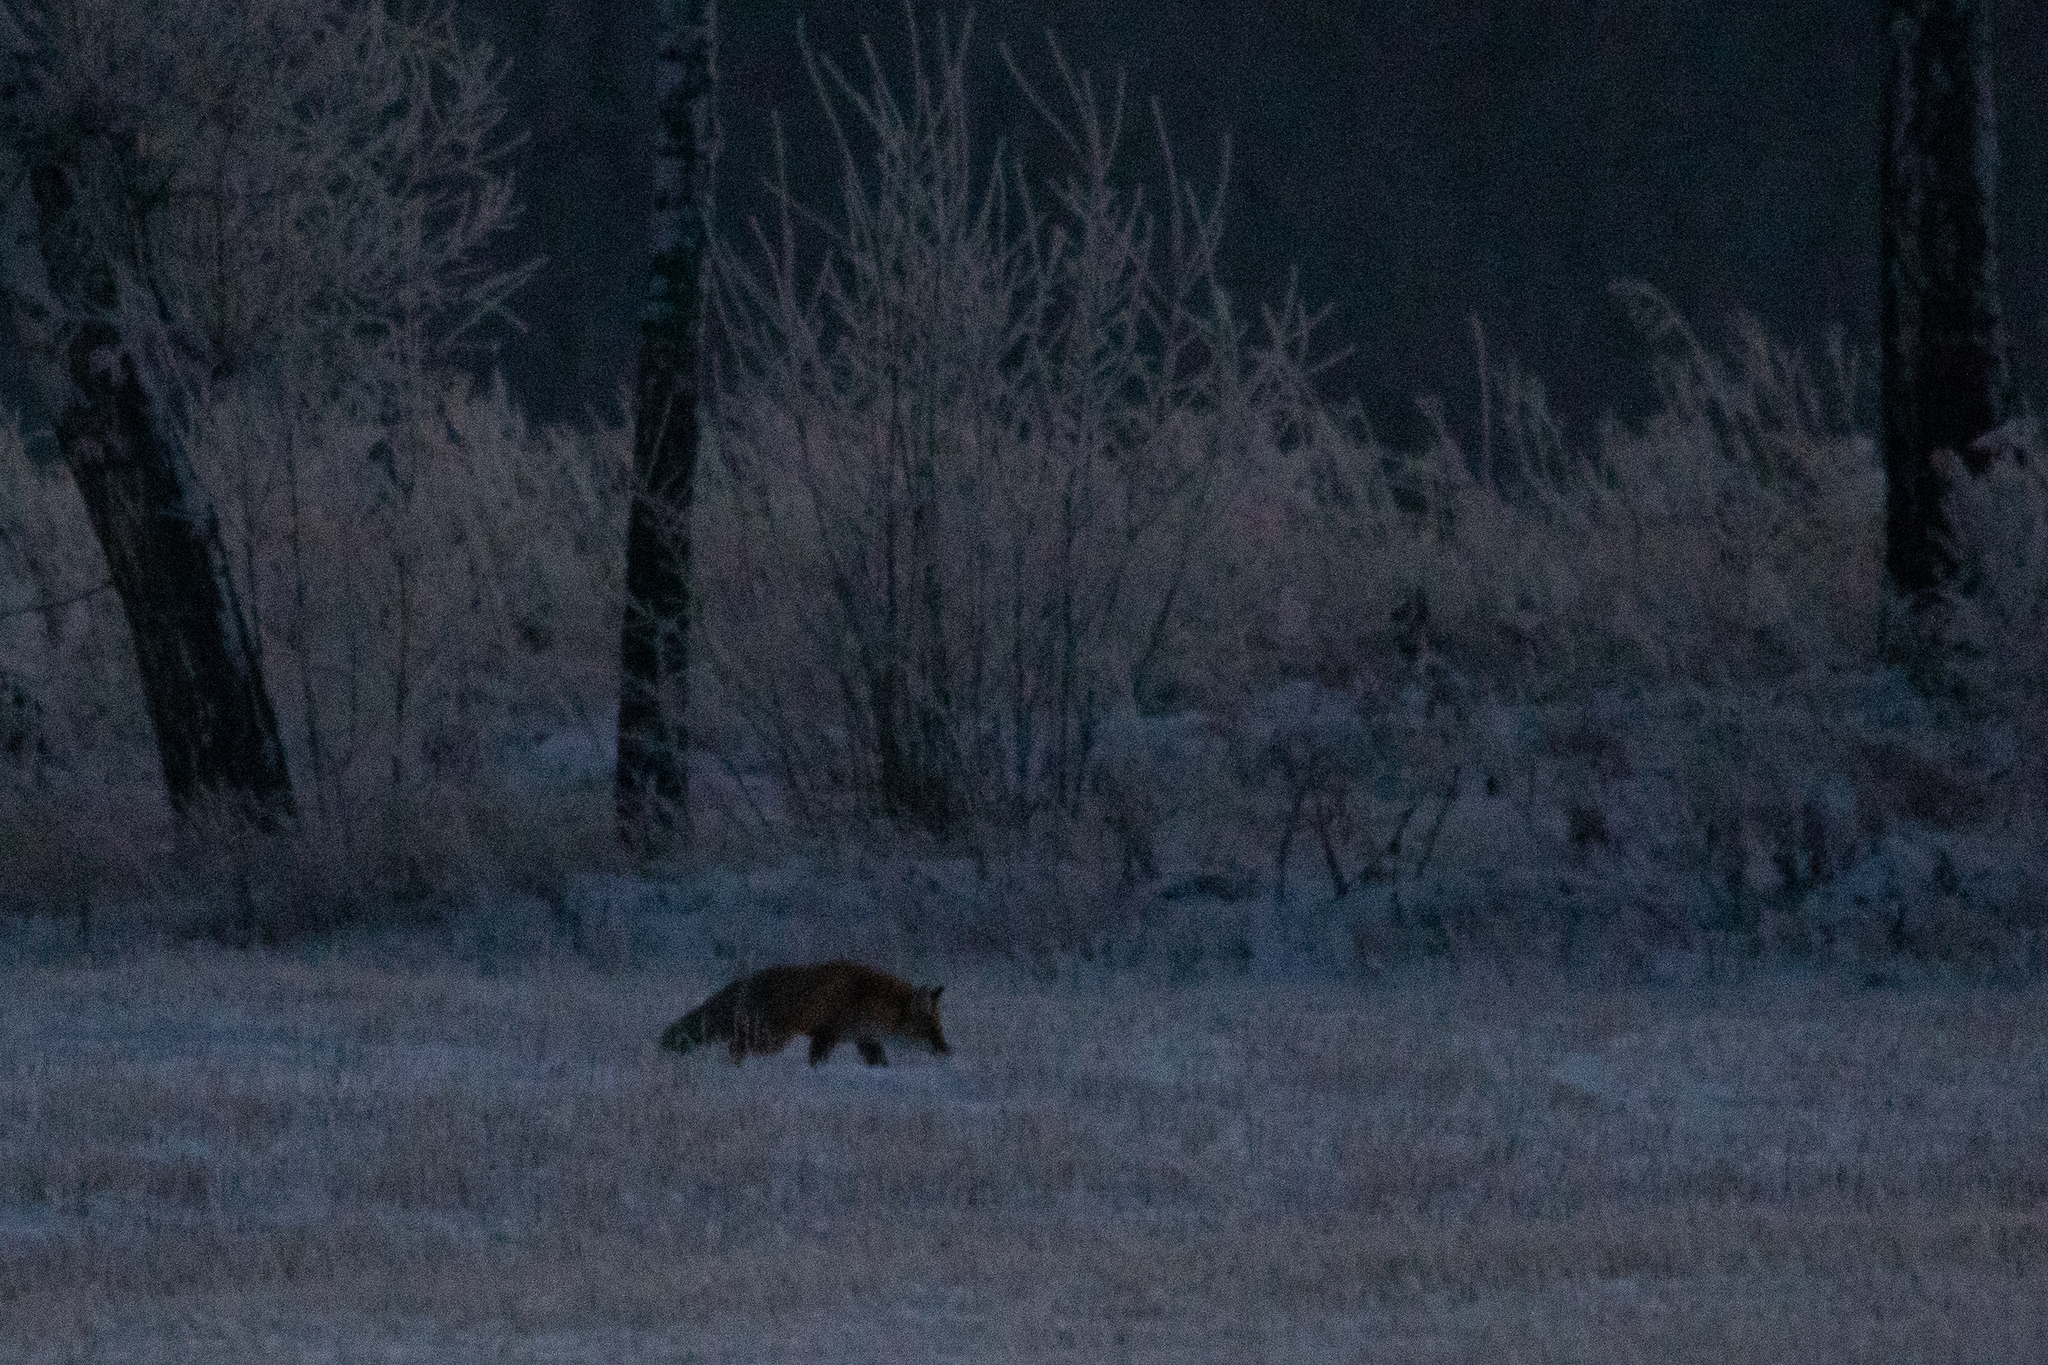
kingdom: Animalia
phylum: Chordata
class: Mammalia
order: Carnivora
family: Canidae
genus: Vulpes
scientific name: Vulpes vulpes
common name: Red fox
